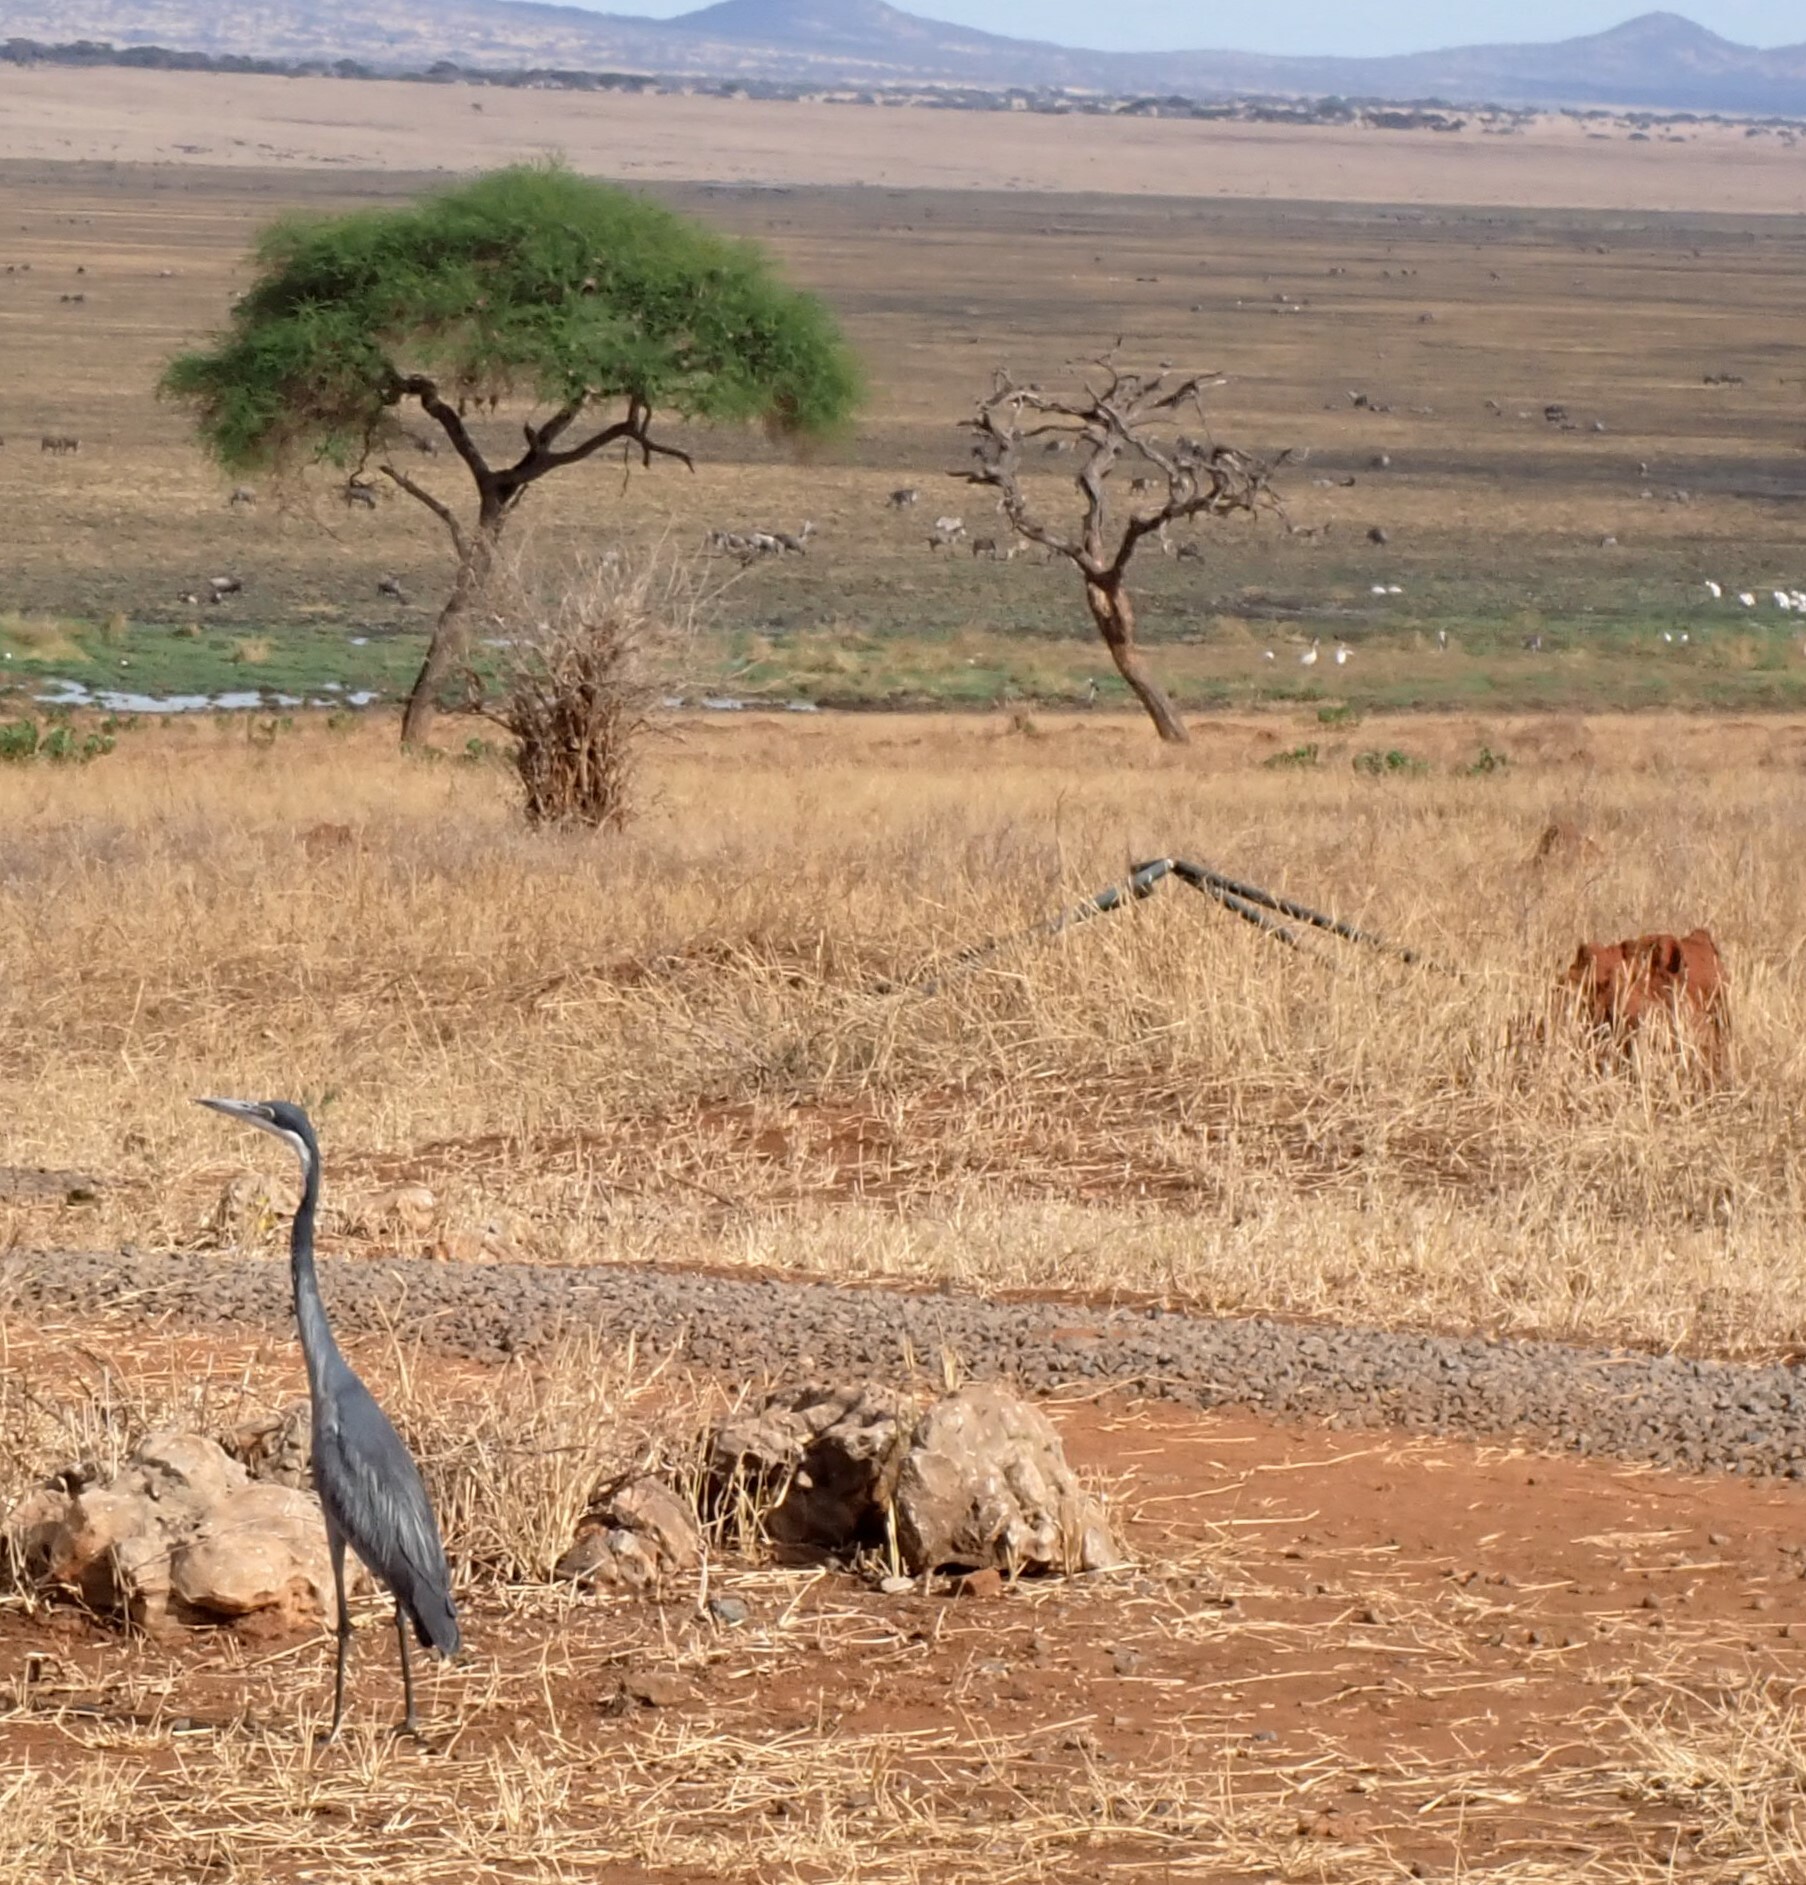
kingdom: Animalia
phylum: Chordata
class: Aves
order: Pelecaniformes
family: Ardeidae
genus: Ardea
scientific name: Ardea melanocephala
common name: Black-headed heron
